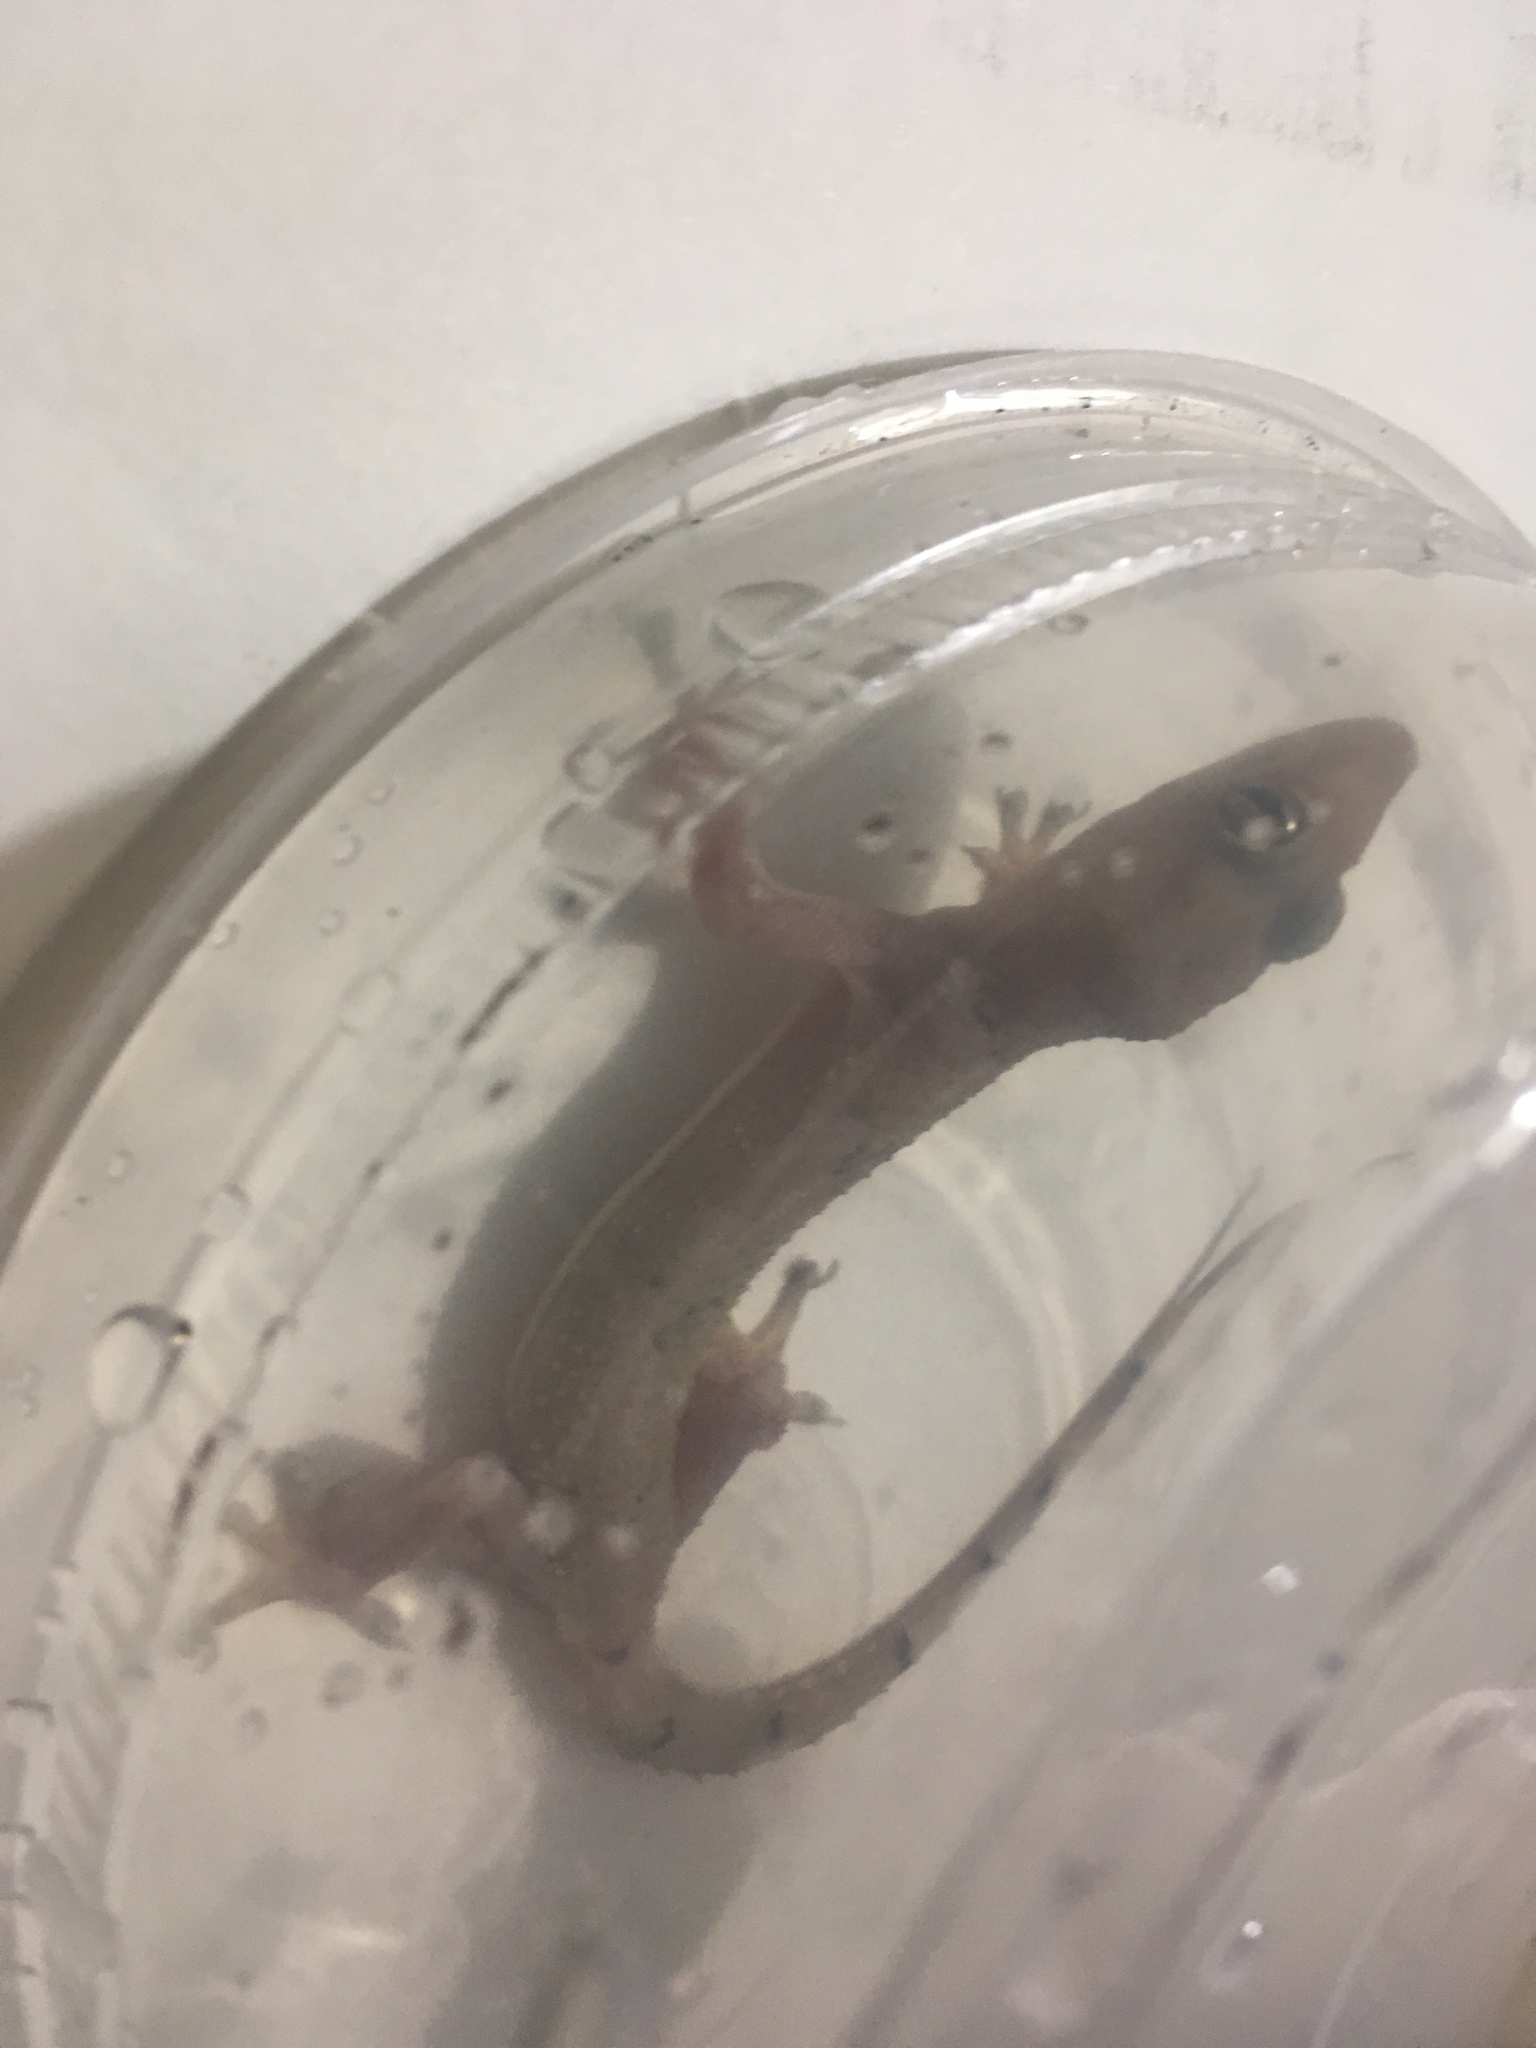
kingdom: Animalia
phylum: Chordata
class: Squamata
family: Gekkonidae
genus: Hemidactylus
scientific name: Hemidactylus mabouia
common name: House gecko
